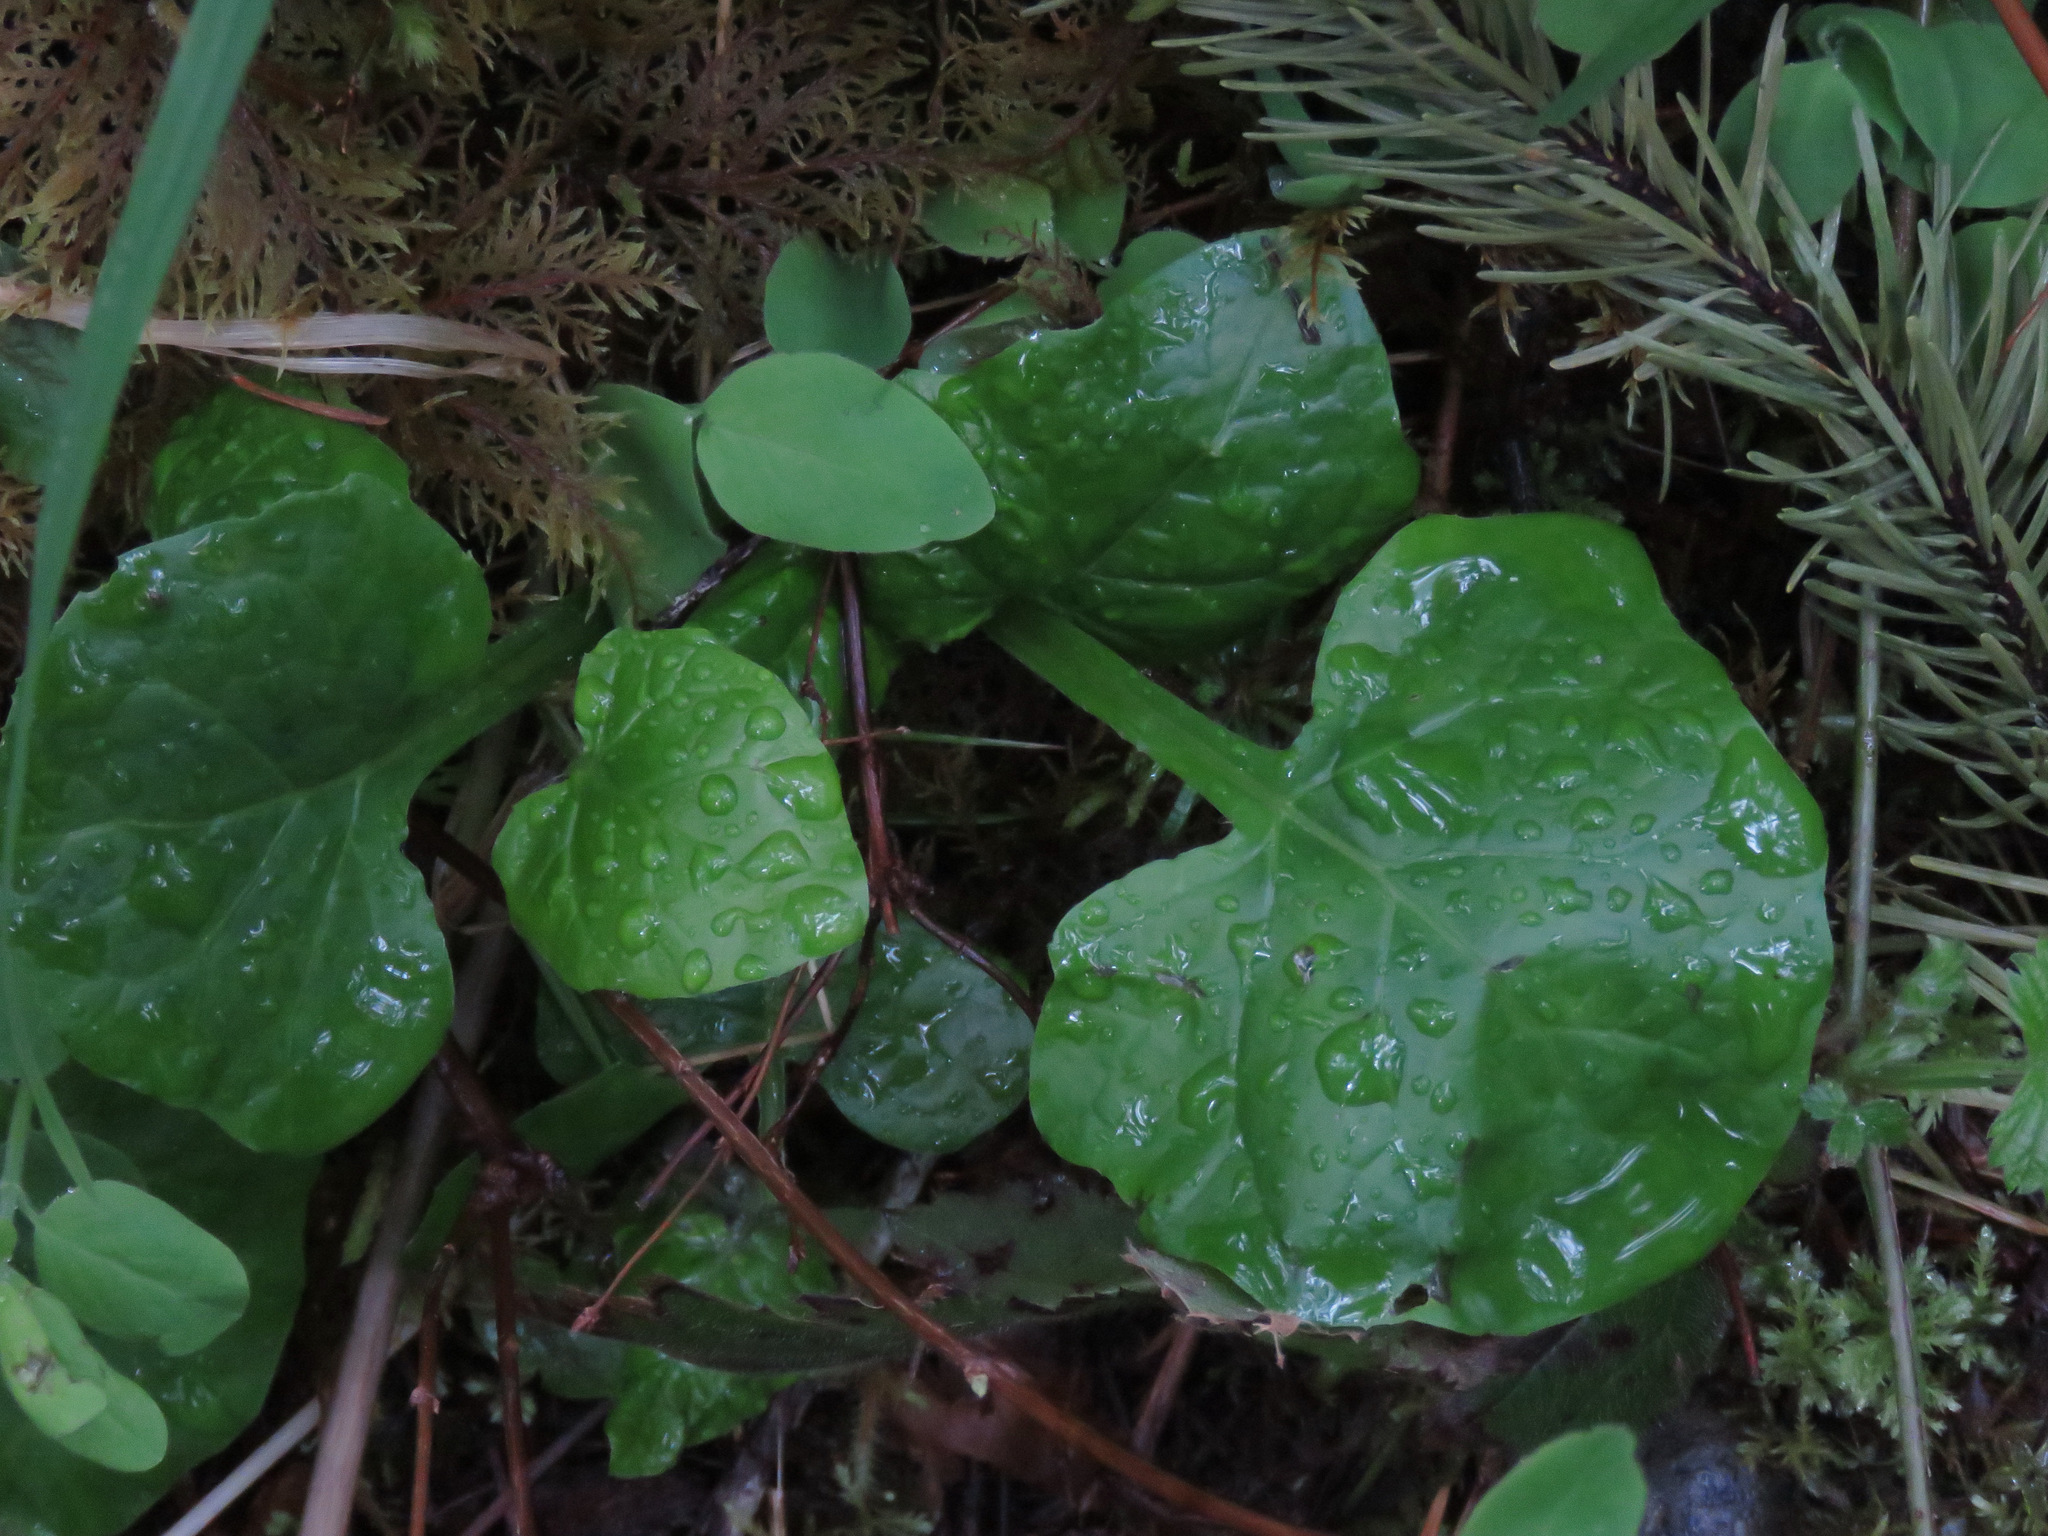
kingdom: Plantae
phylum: Tracheophyta
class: Magnoliopsida
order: Asterales
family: Asteraceae
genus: Adenocaulon
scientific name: Adenocaulon bicolor
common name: Trailplant
